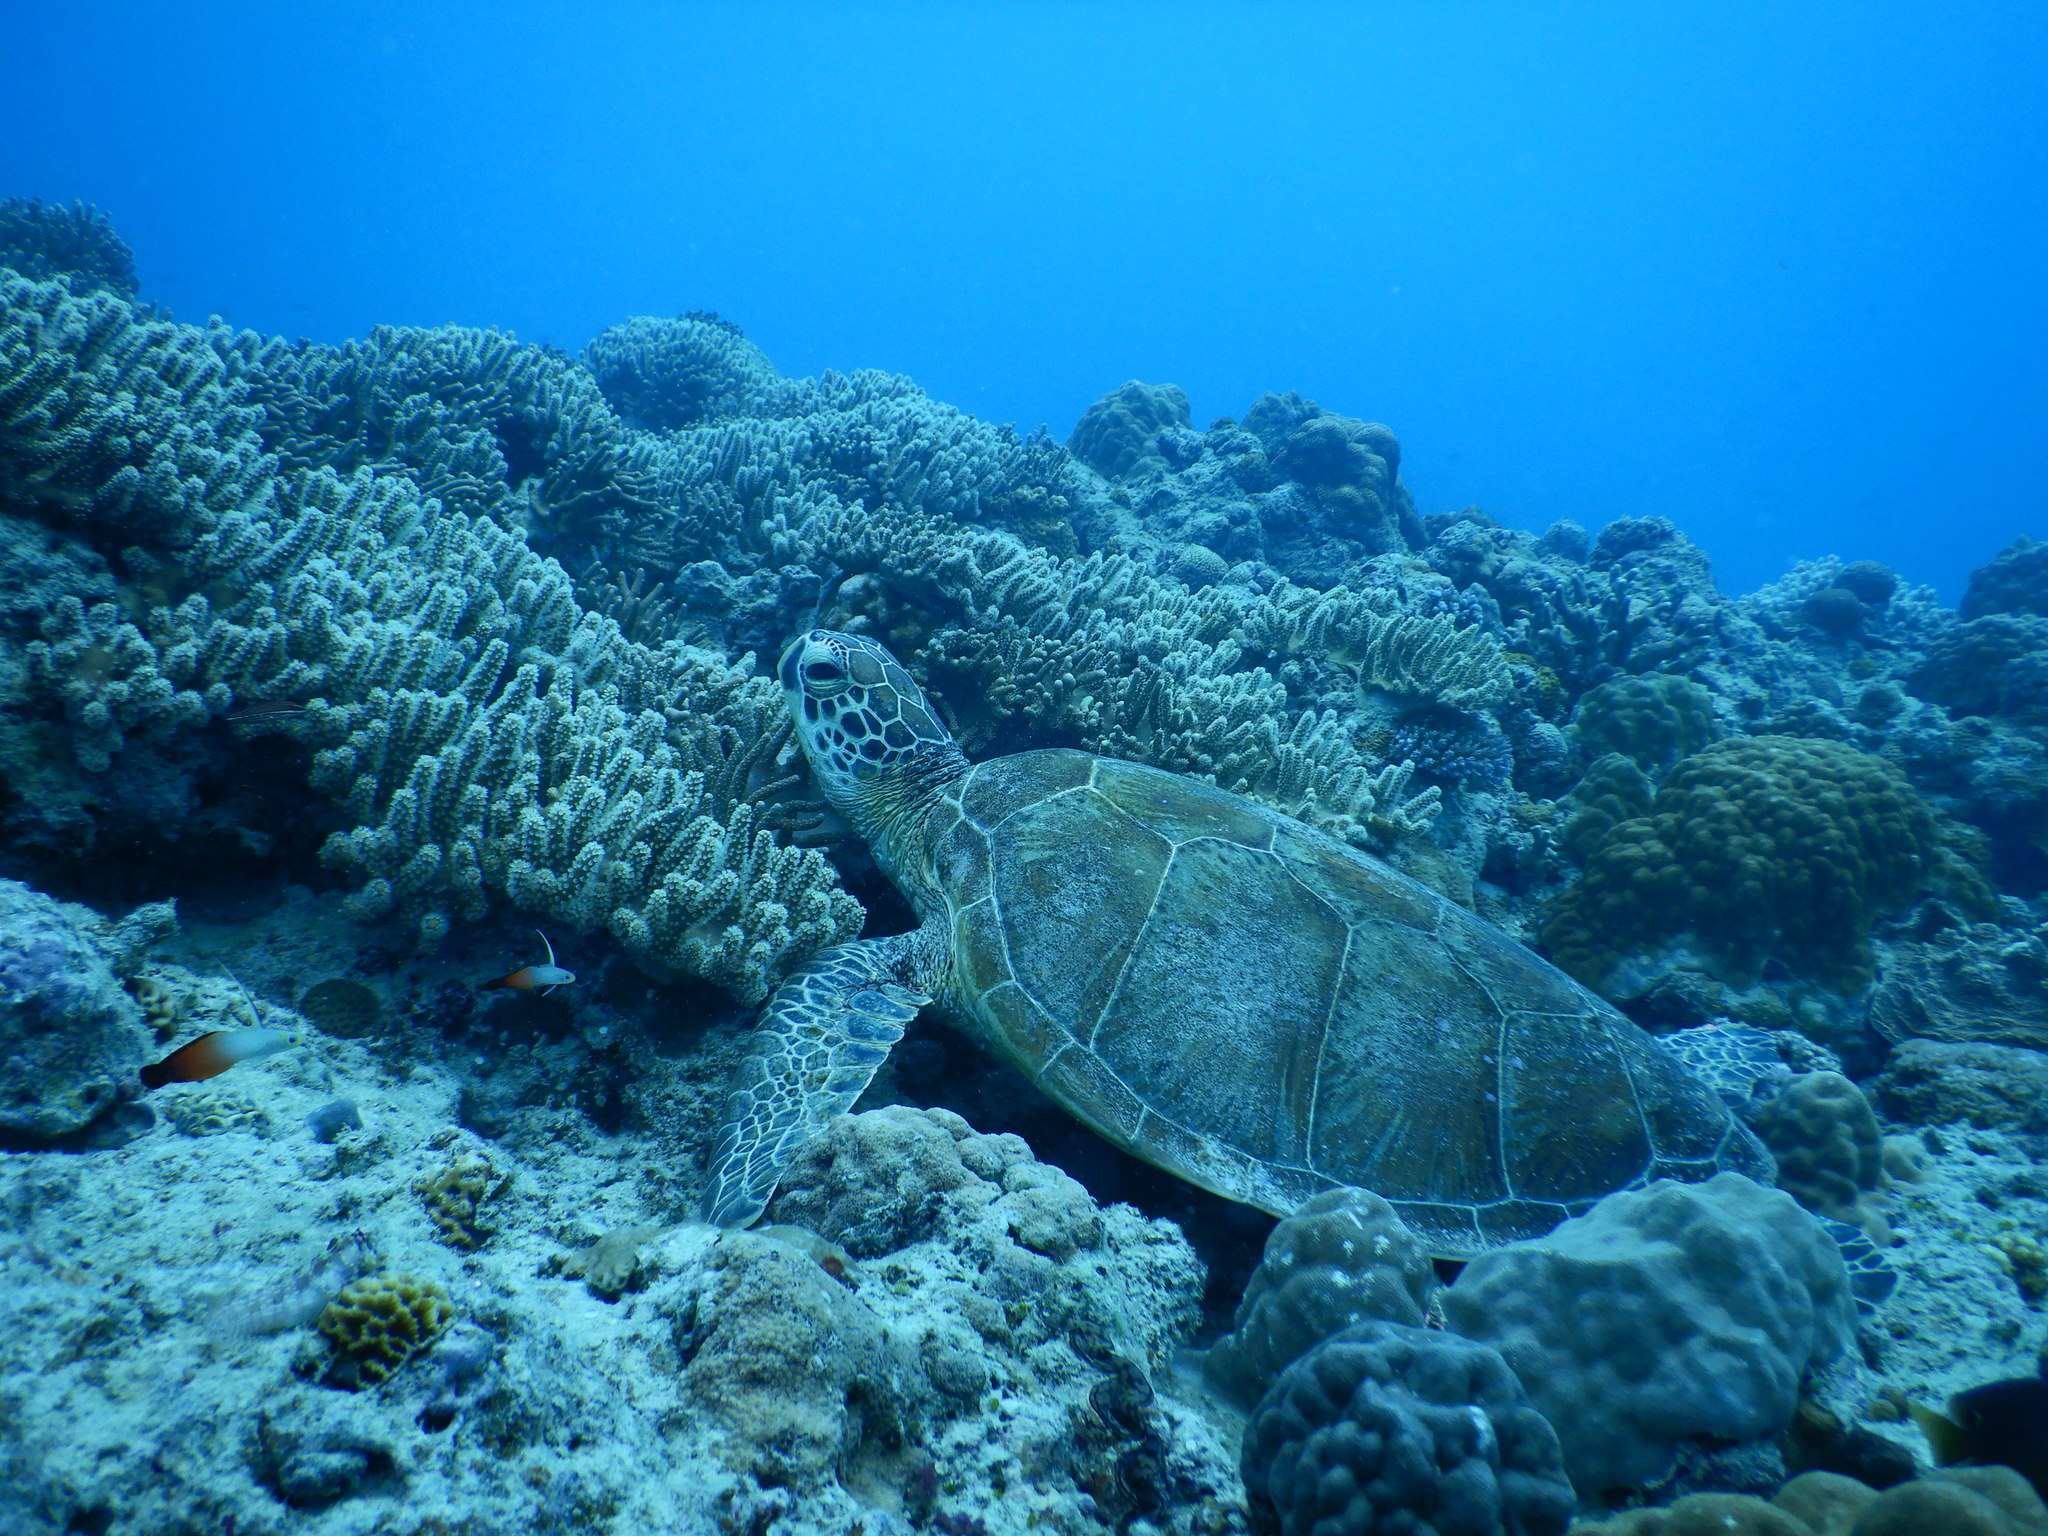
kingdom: Animalia
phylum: Chordata
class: Testudines
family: Cheloniidae
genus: Chelonia
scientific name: Chelonia mydas
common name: Green turtle
